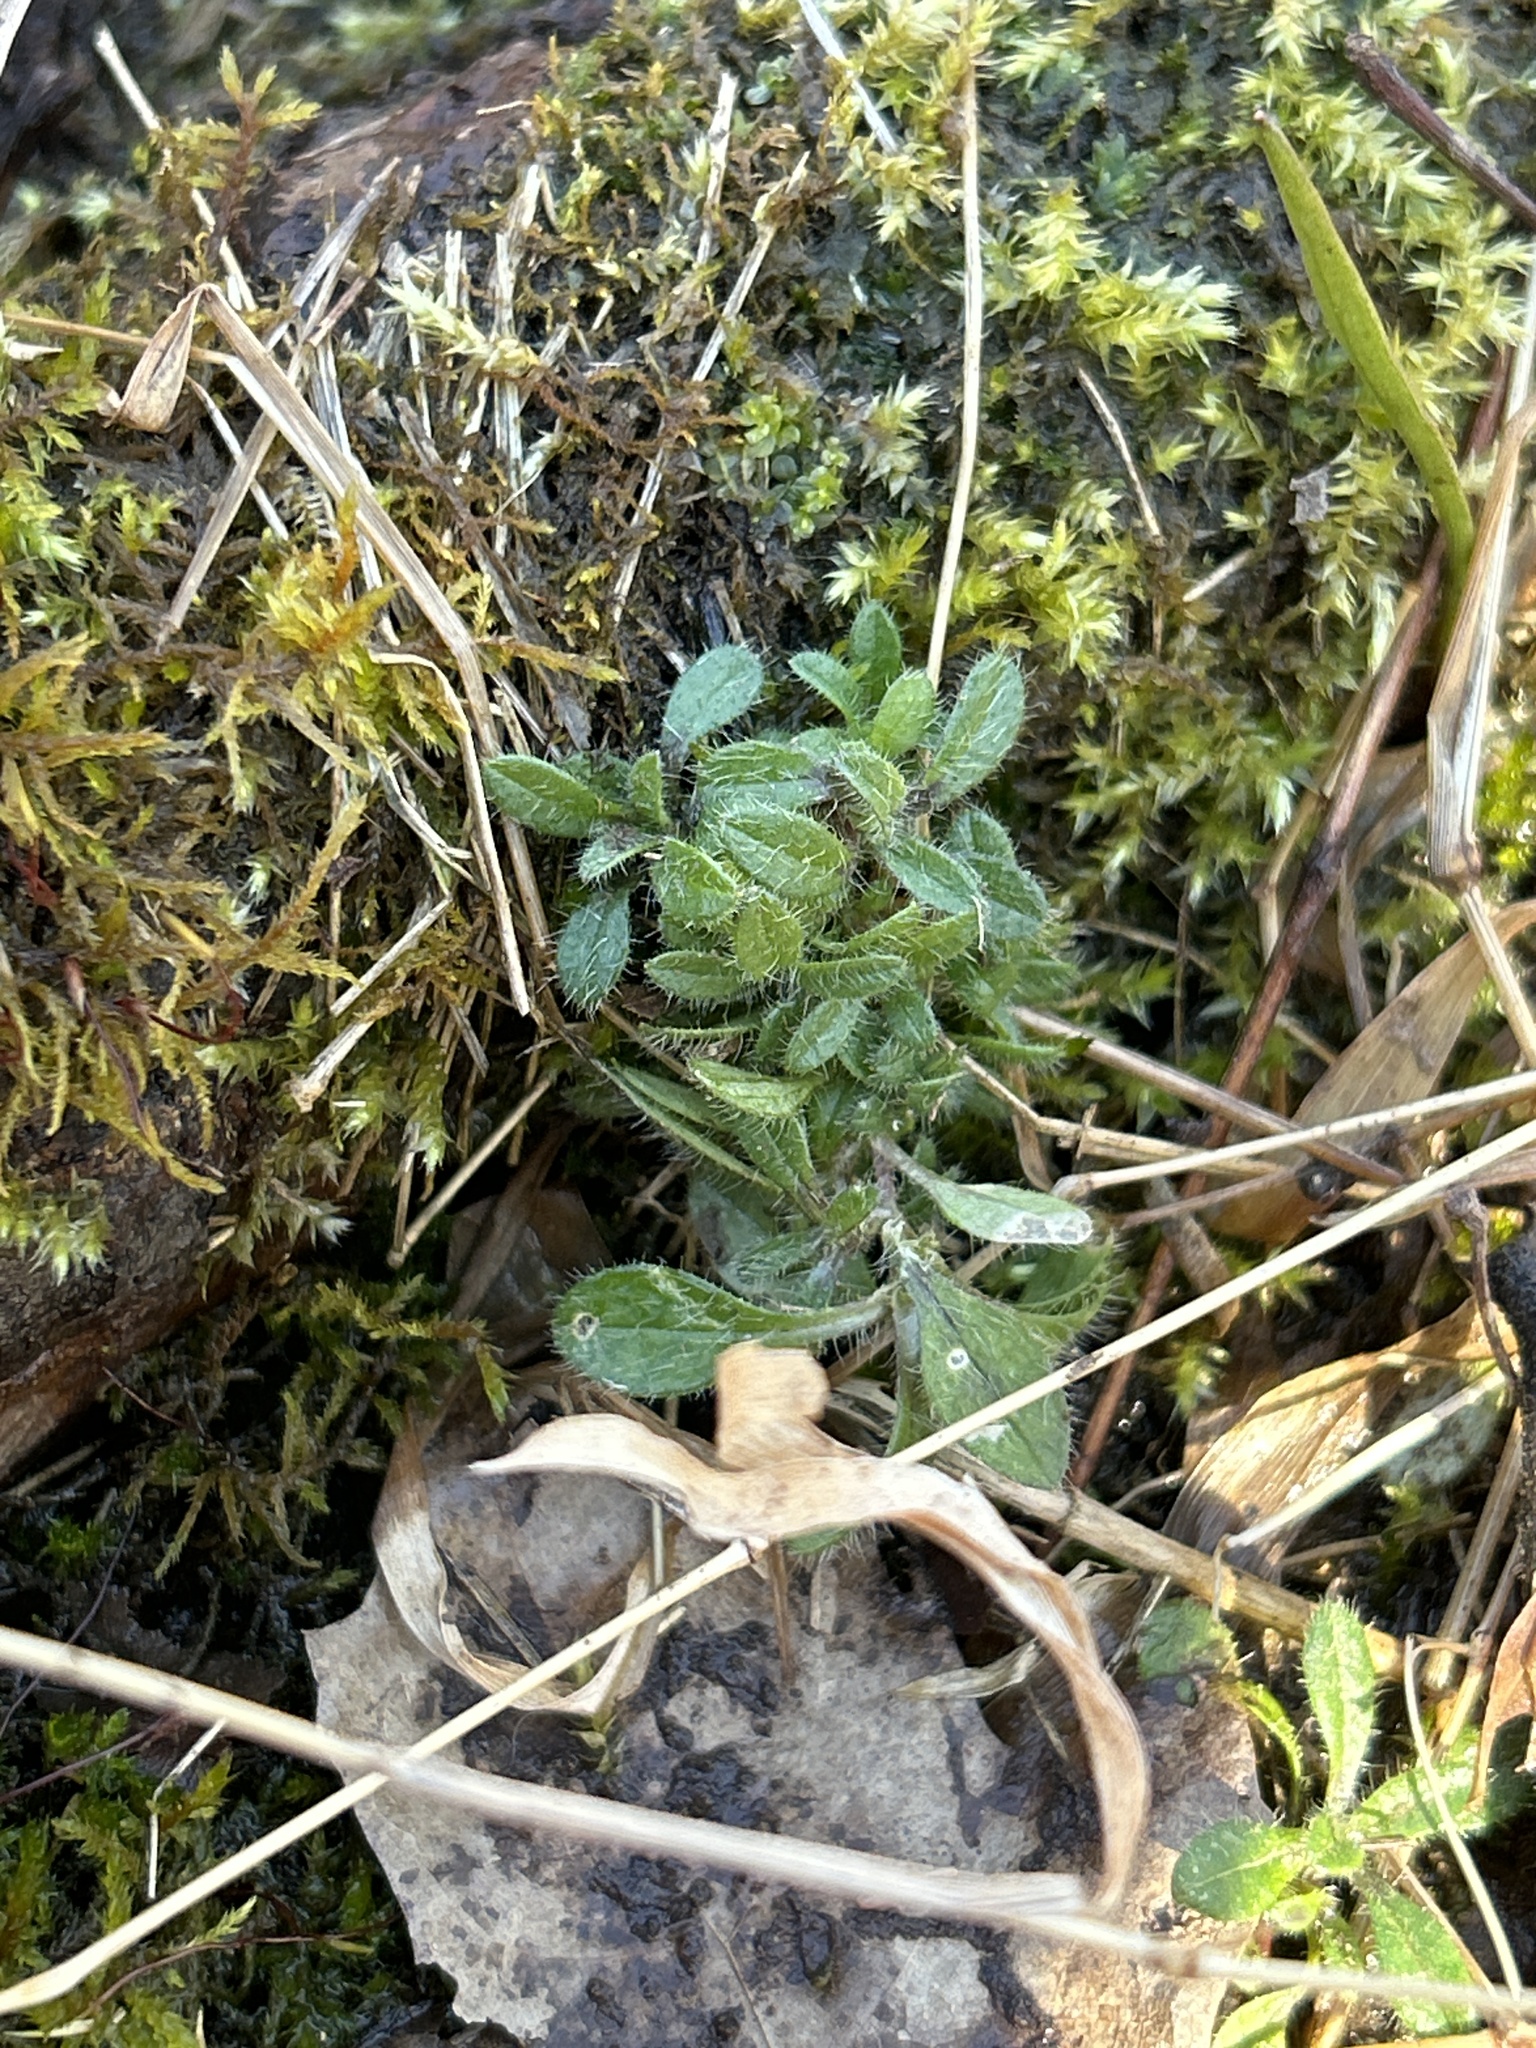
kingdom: Plantae
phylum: Tracheophyta
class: Magnoliopsida
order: Caryophyllales
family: Caryophyllaceae
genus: Cerastium
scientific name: Cerastium fontanum
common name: Common mouse-ear
